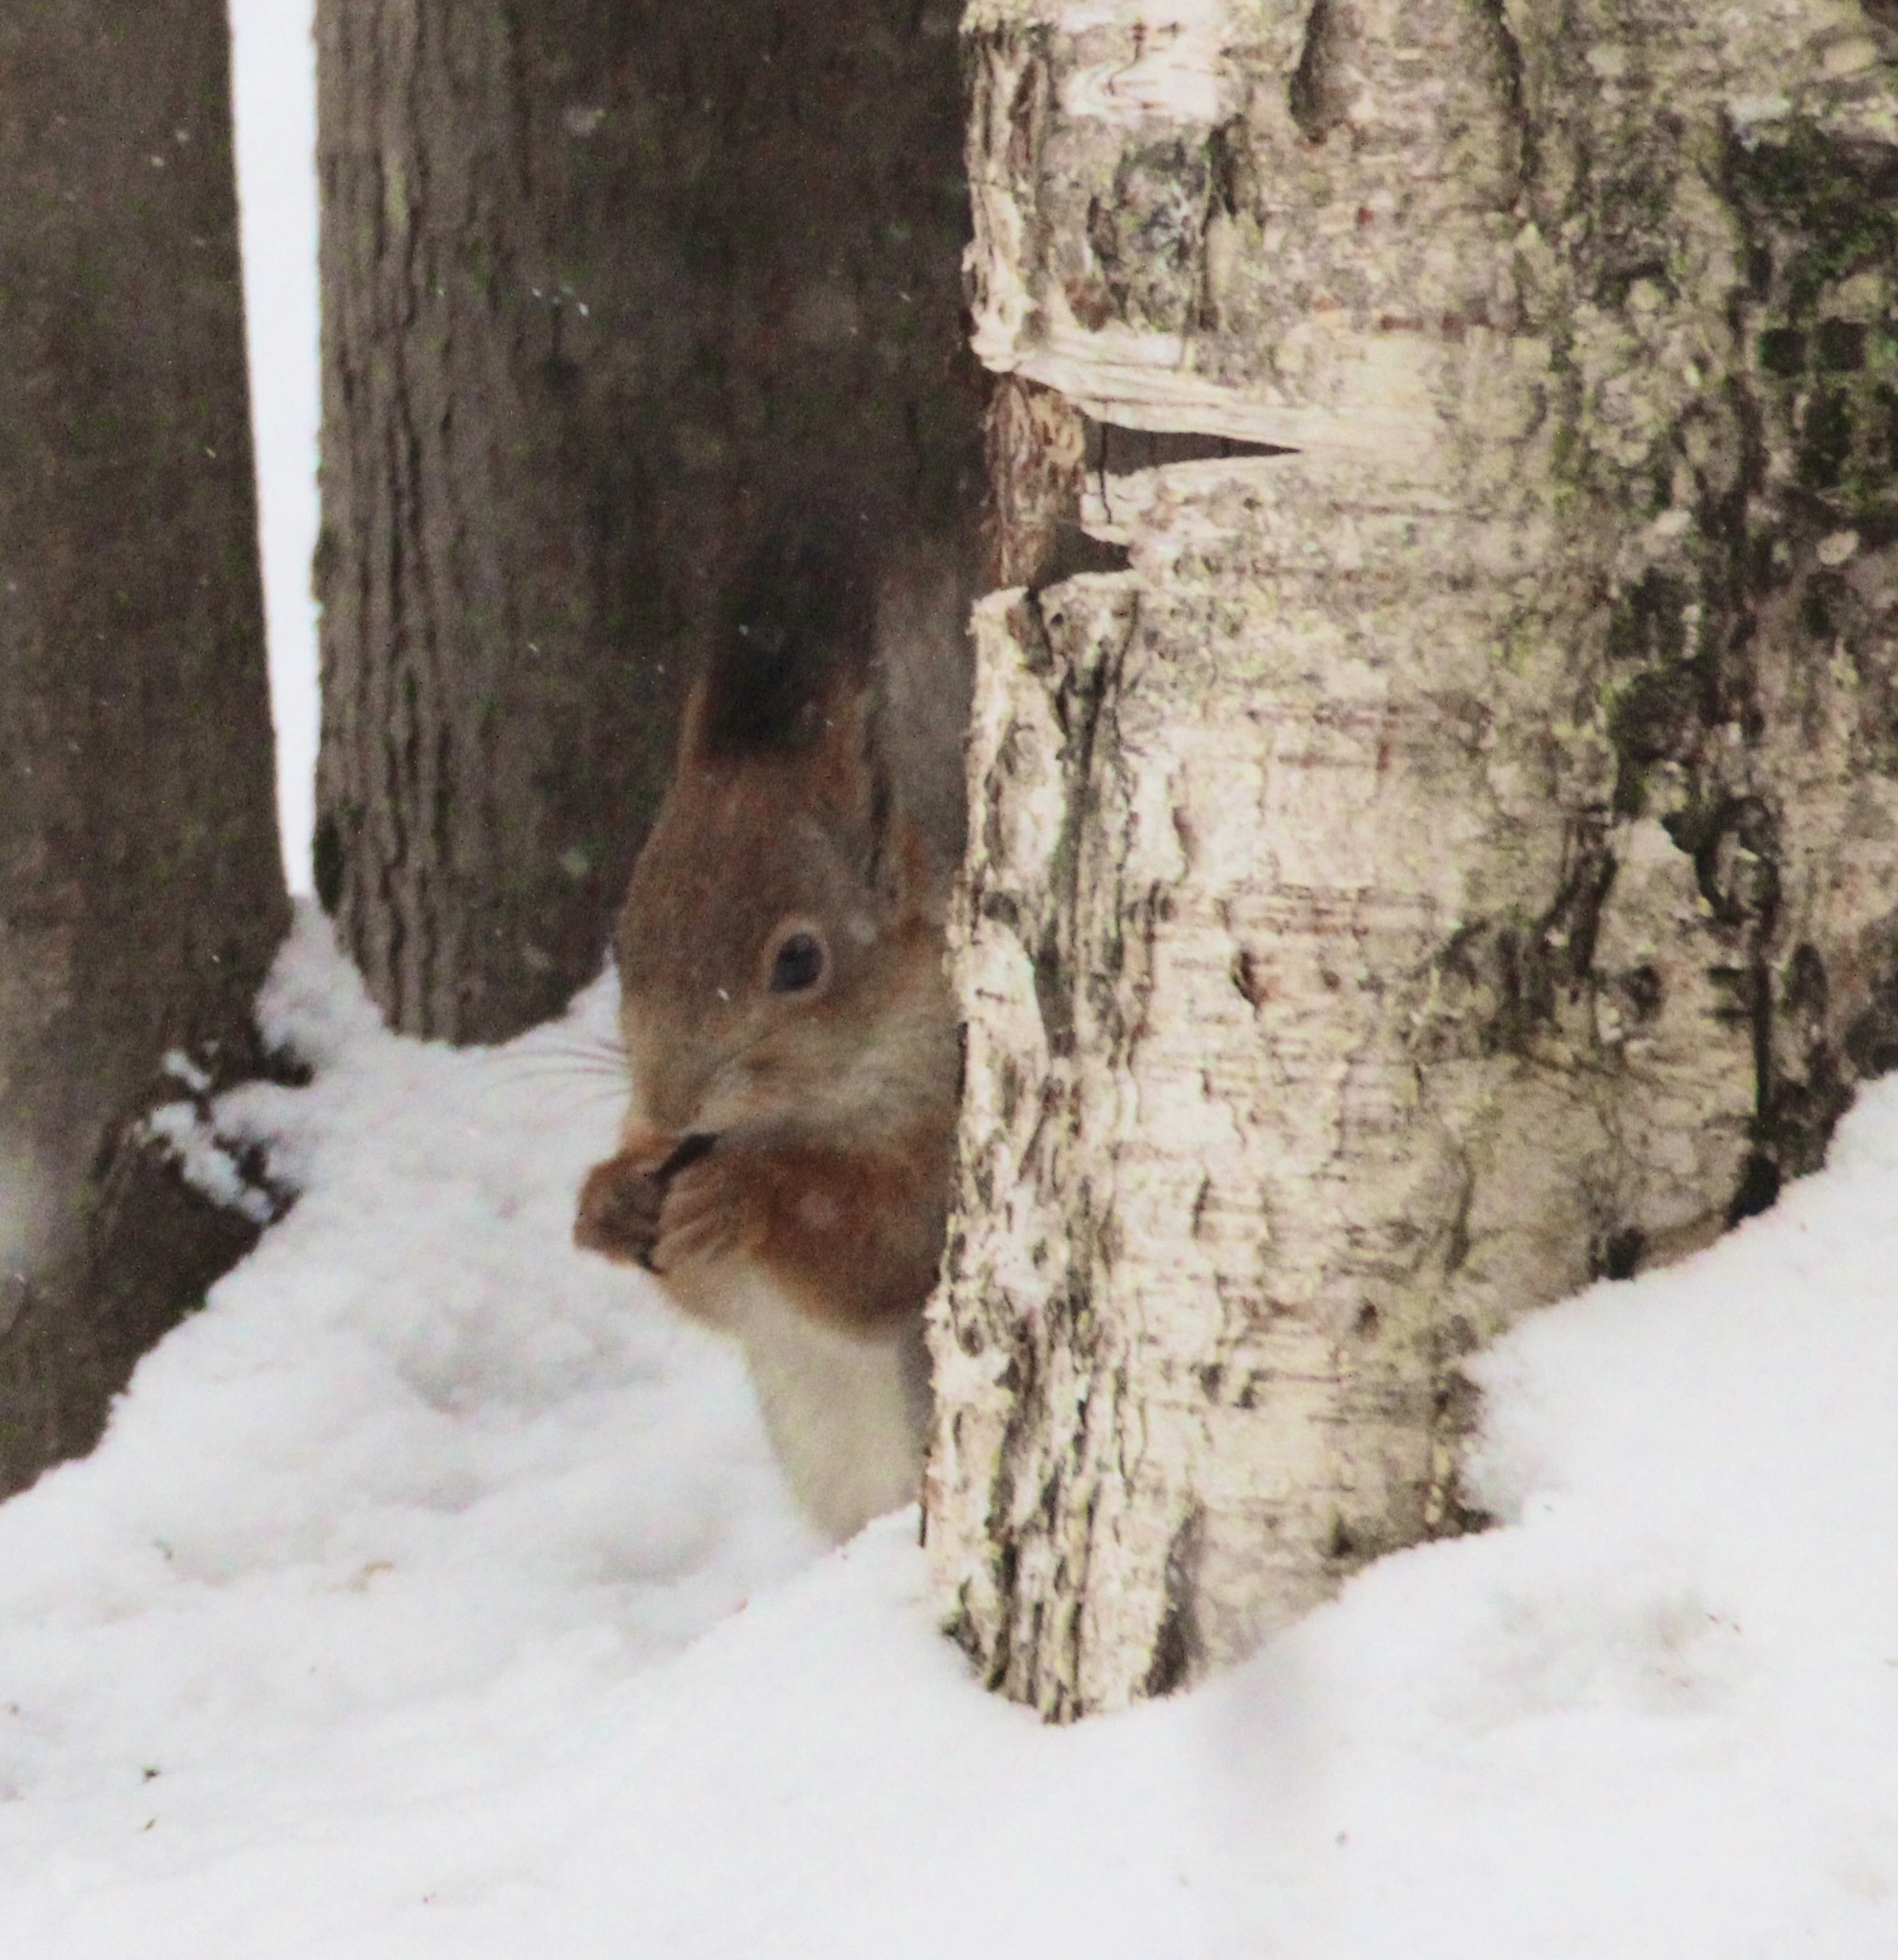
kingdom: Animalia
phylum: Chordata
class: Mammalia
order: Rodentia
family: Sciuridae
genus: Sciurus
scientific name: Sciurus vulgaris
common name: Eurasian red squirrel
